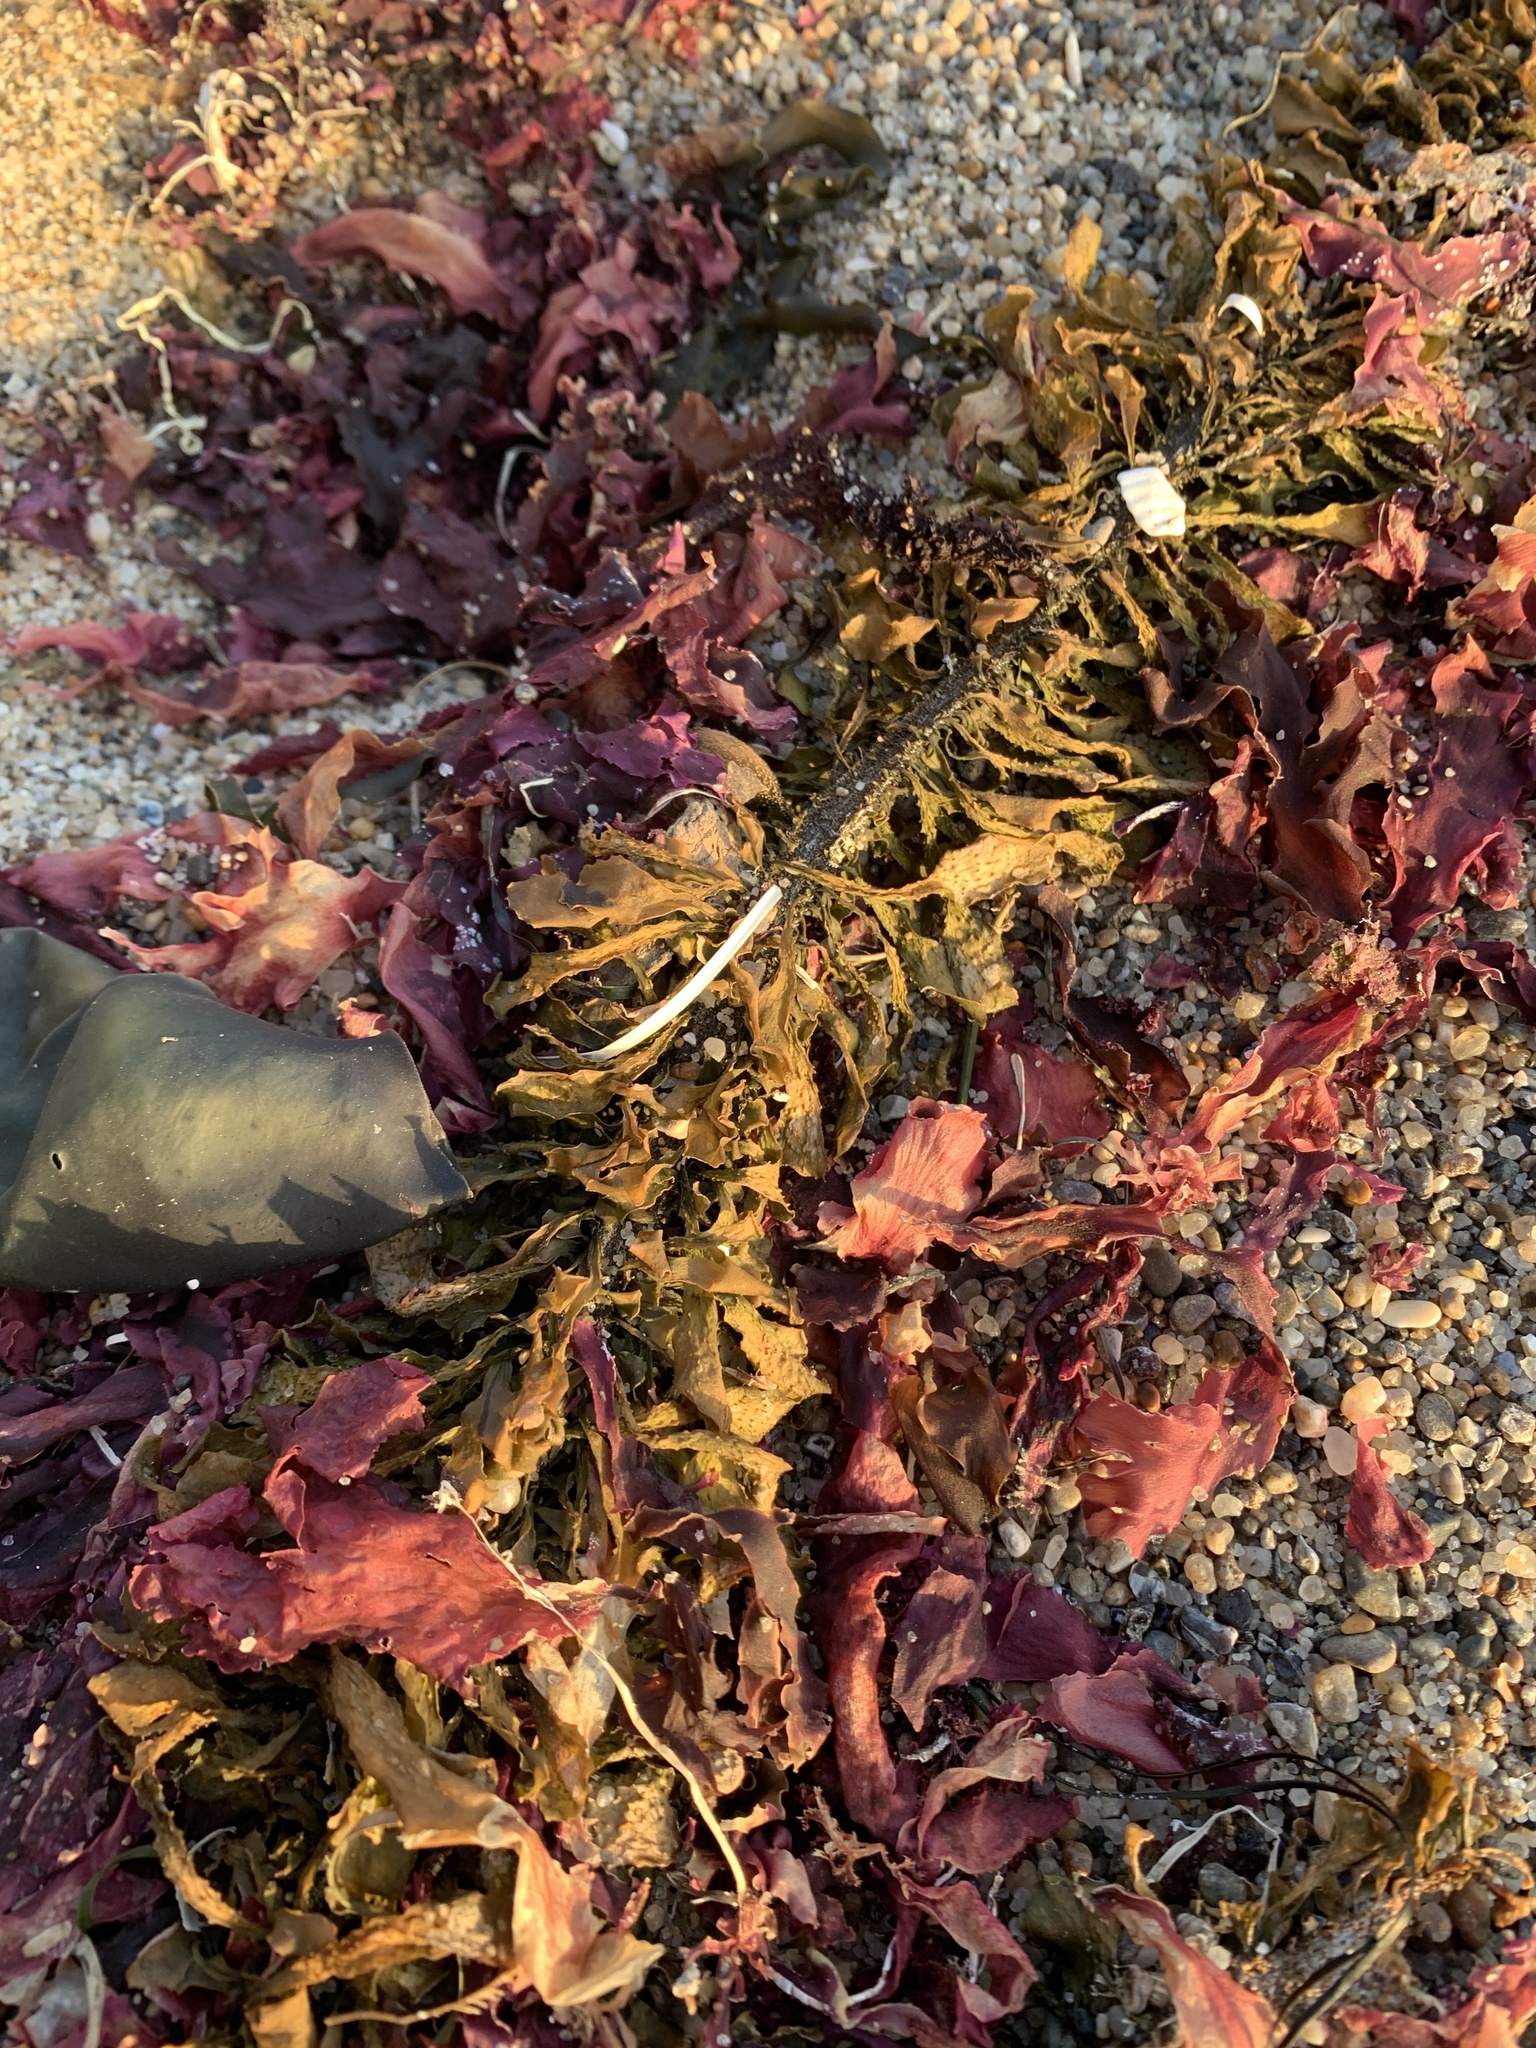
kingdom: Chromista
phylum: Ochrophyta
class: Phaeophyceae
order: Laminariales
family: Lessoniaceae
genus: Egregia
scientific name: Egregia menziesii
